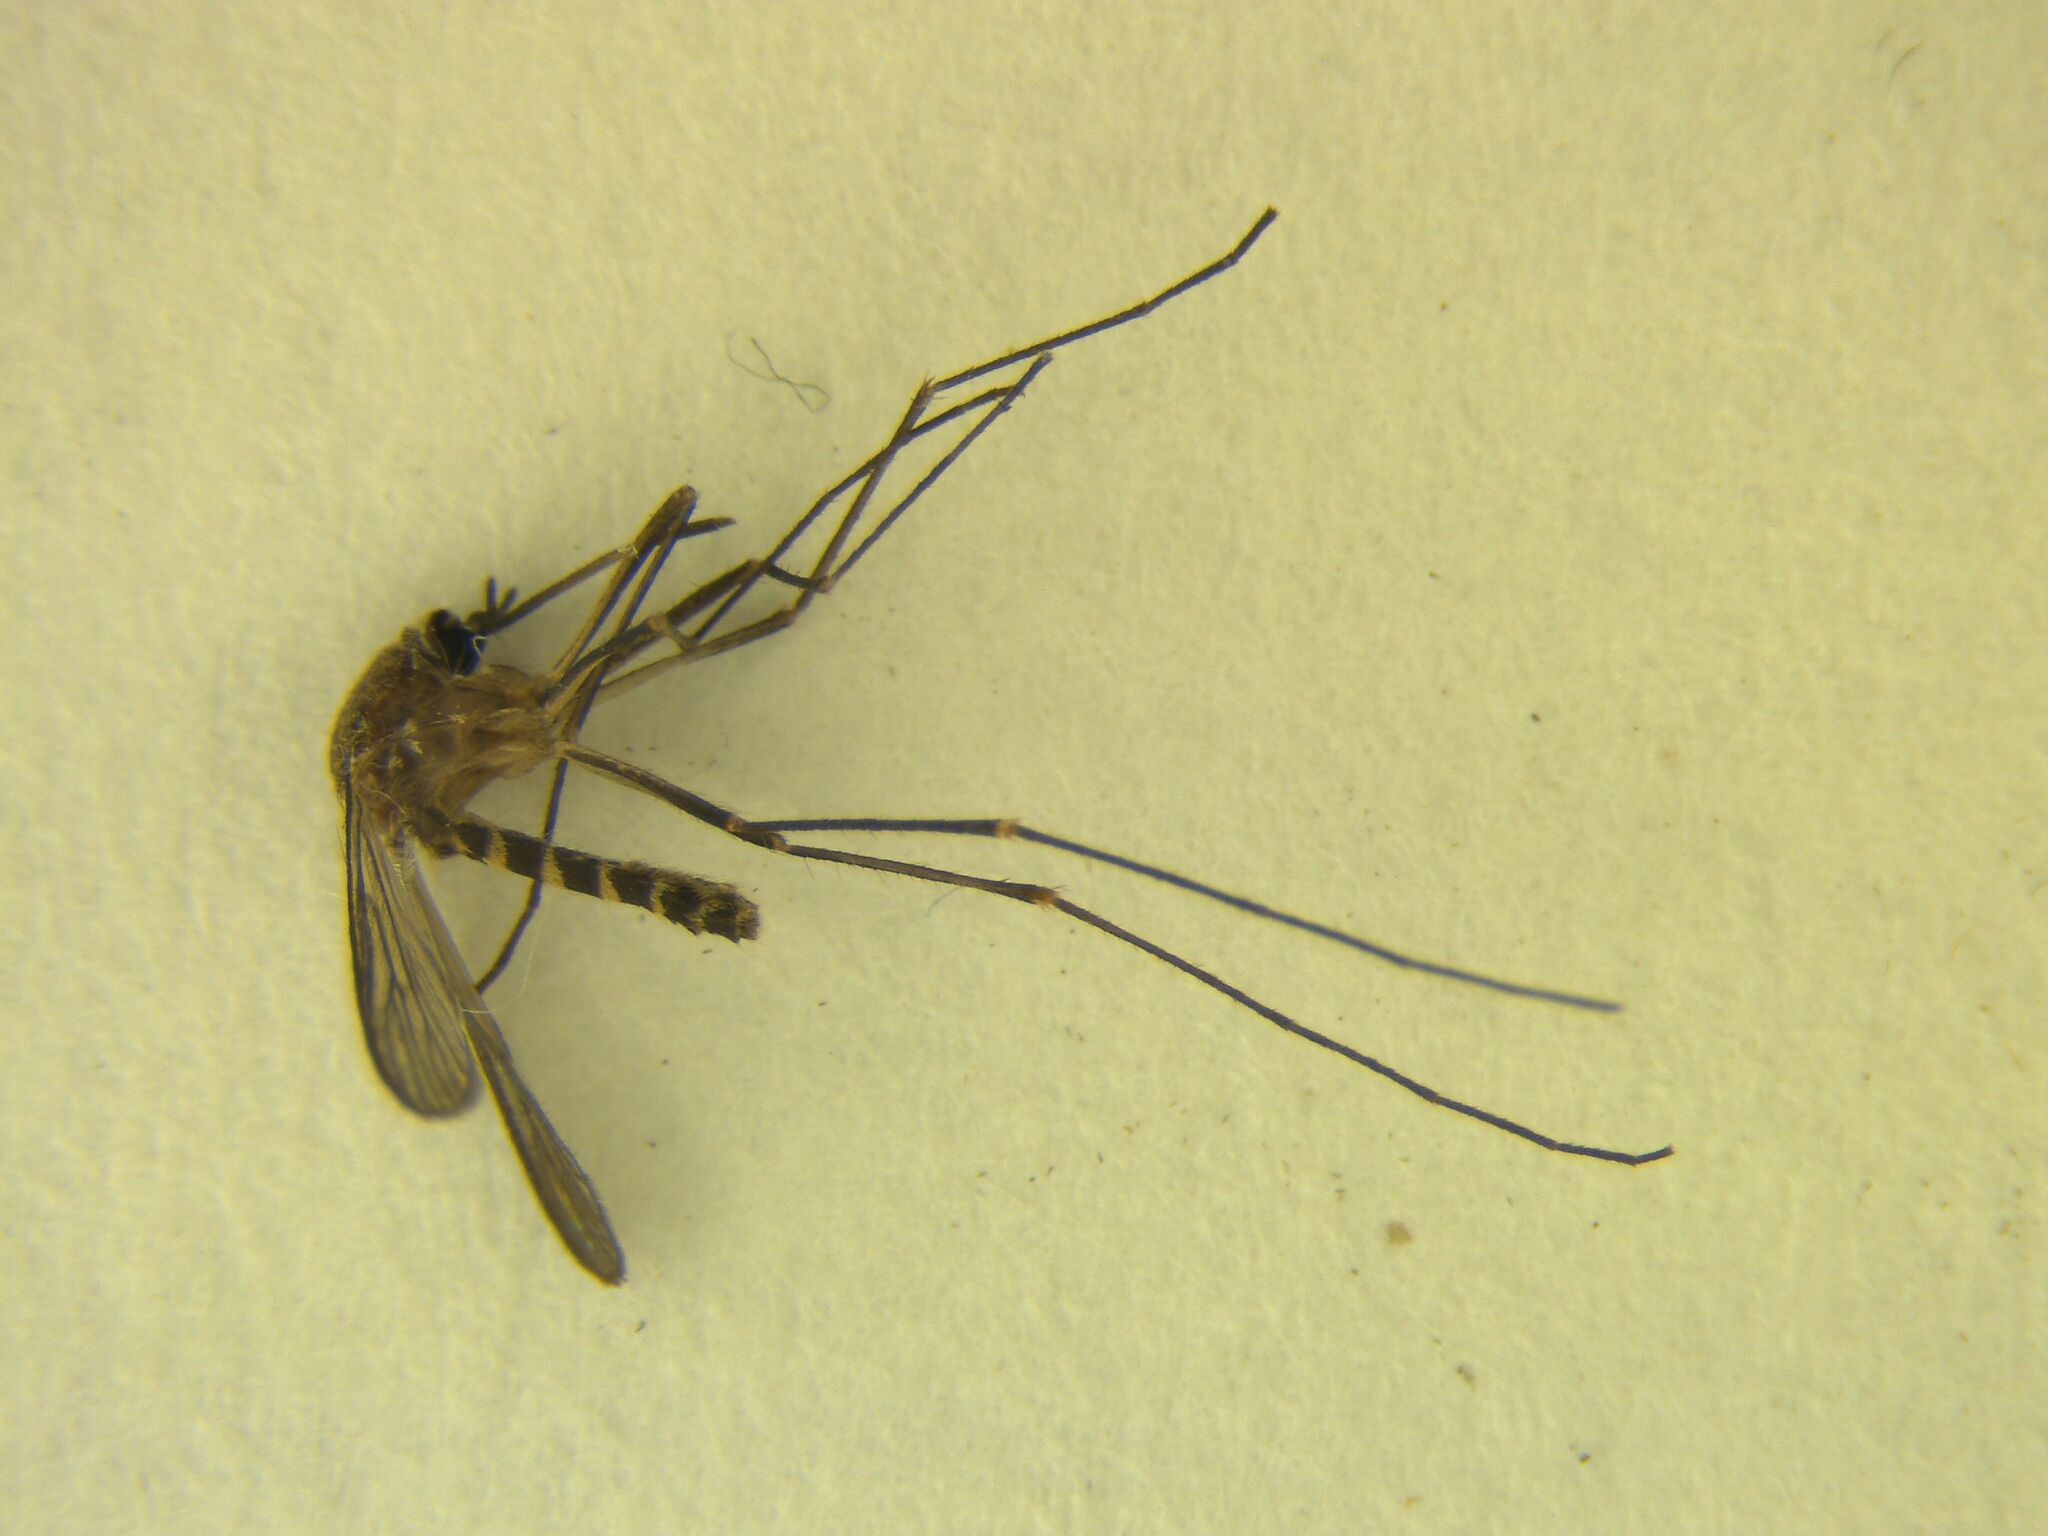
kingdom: Animalia
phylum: Arthropoda
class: Insecta
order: Diptera
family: Culicidae
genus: Culex
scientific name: Culex pervigilans
